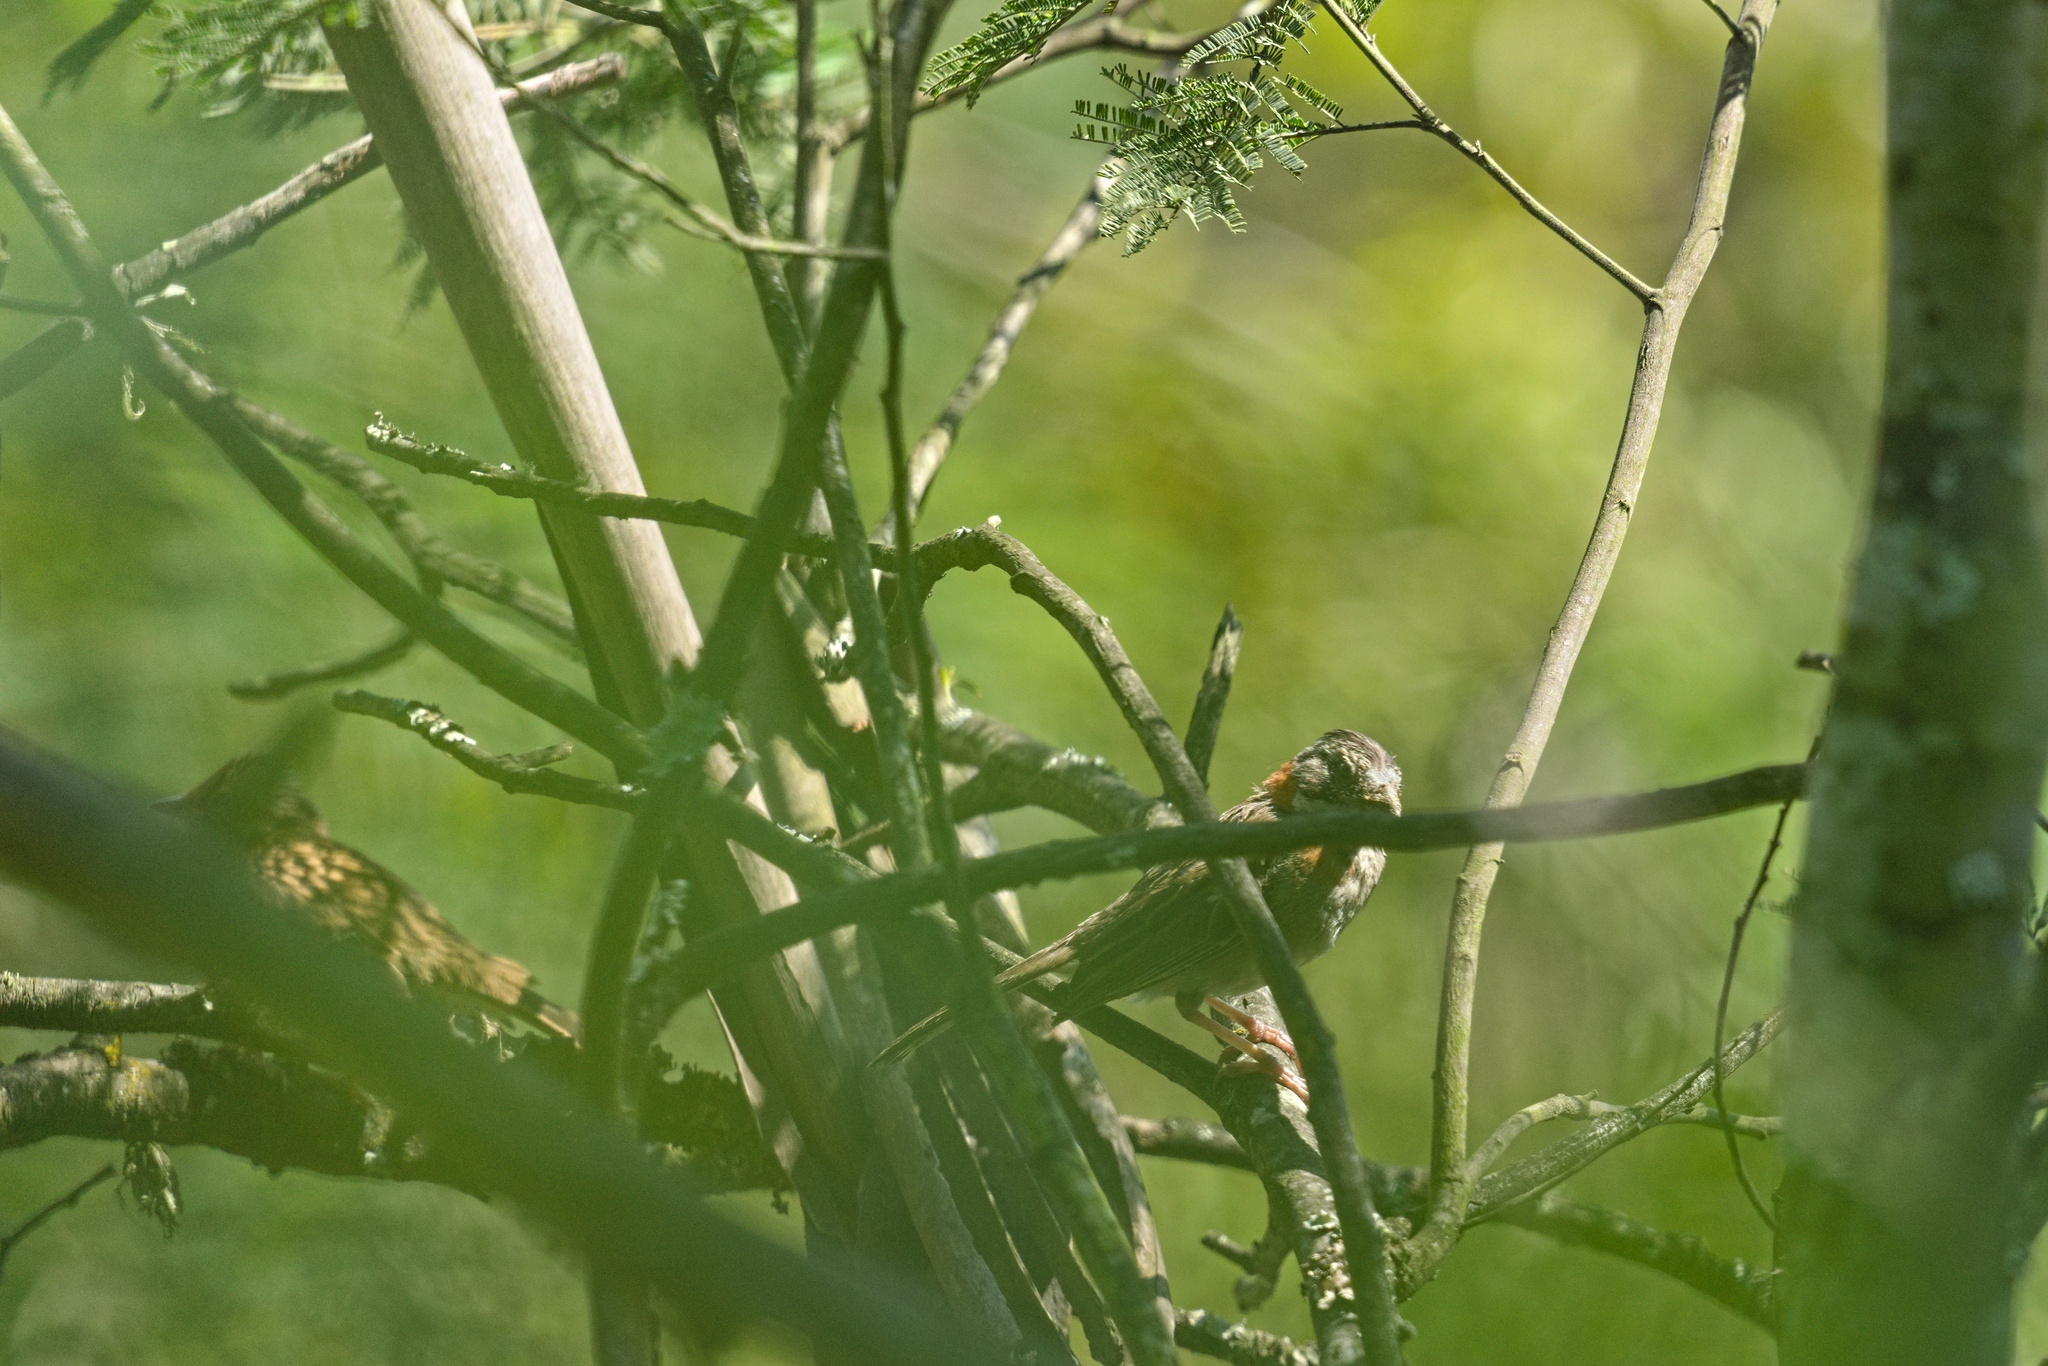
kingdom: Animalia
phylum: Chordata
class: Aves
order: Passeriformes
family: Passerellidae
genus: Zonotrichia
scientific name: Zonotrichia capensis
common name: Rufous-collared sparrow
